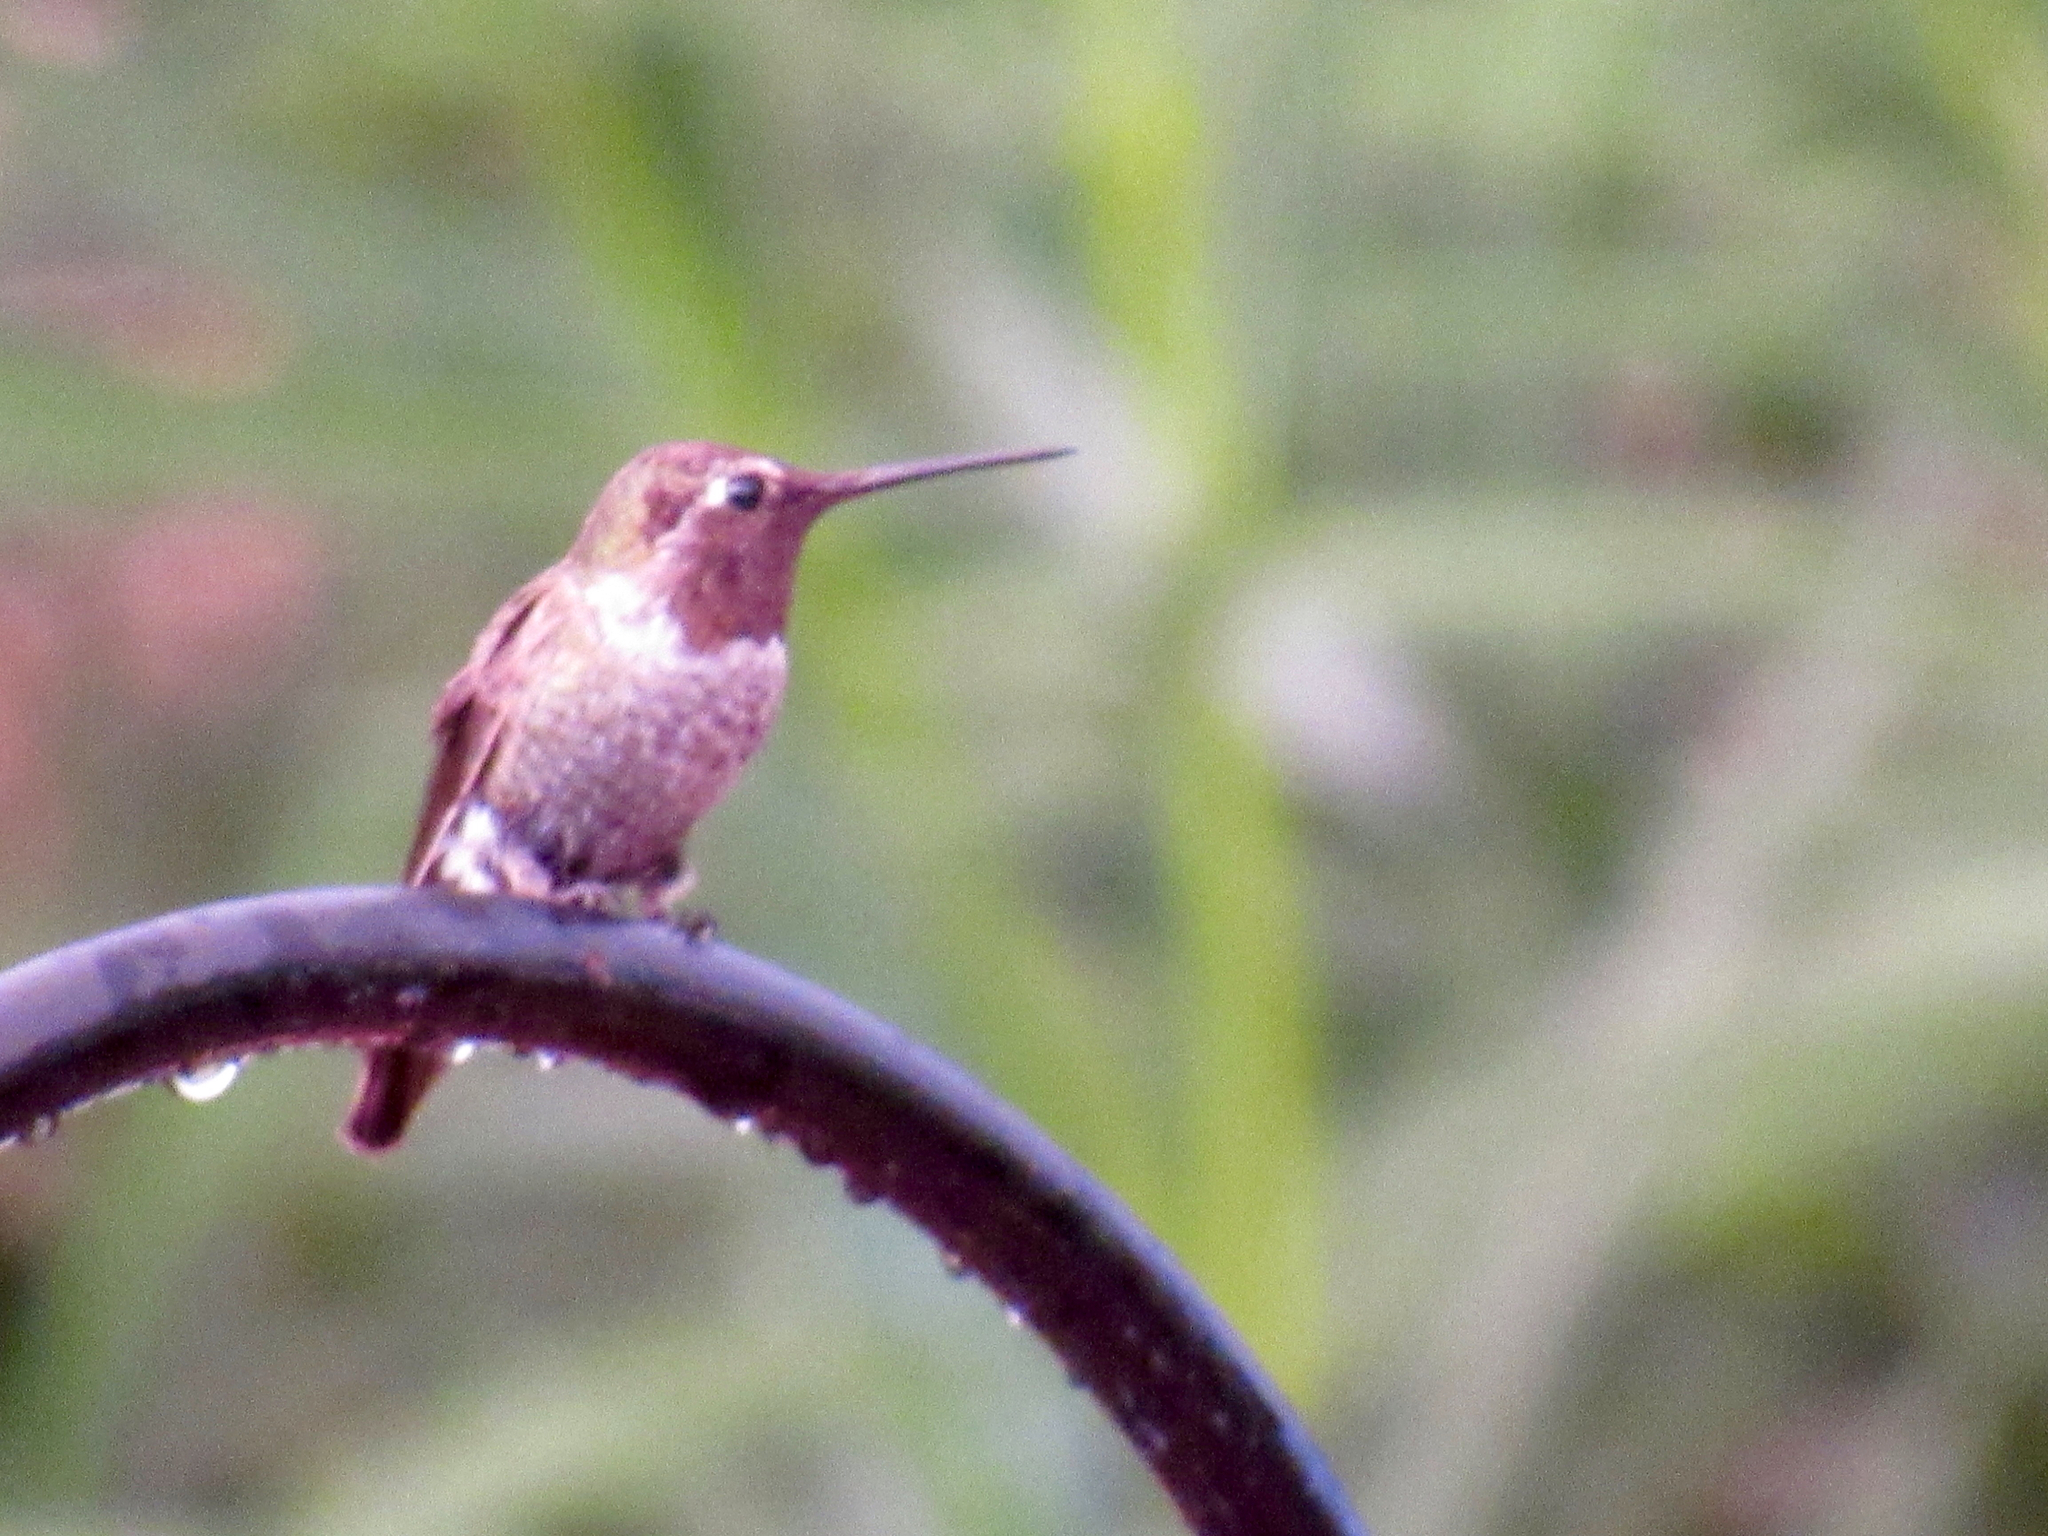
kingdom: Animalia
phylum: Chordata
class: Aves
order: Apodiformes
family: Trochilidae
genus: Calypte
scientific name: Calypte anna
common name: Anna's hummingbird
